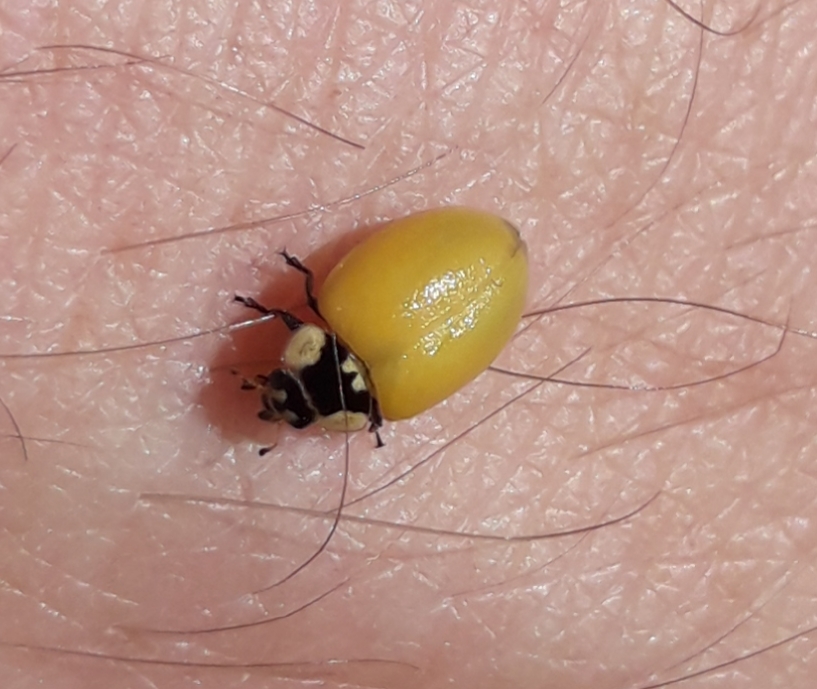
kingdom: Animalia
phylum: Arthropoda
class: Insecta
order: Coleoptera
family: Coccinellidae
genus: Harmonia
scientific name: Harmonia axyridis
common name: Harlequin ladybird
